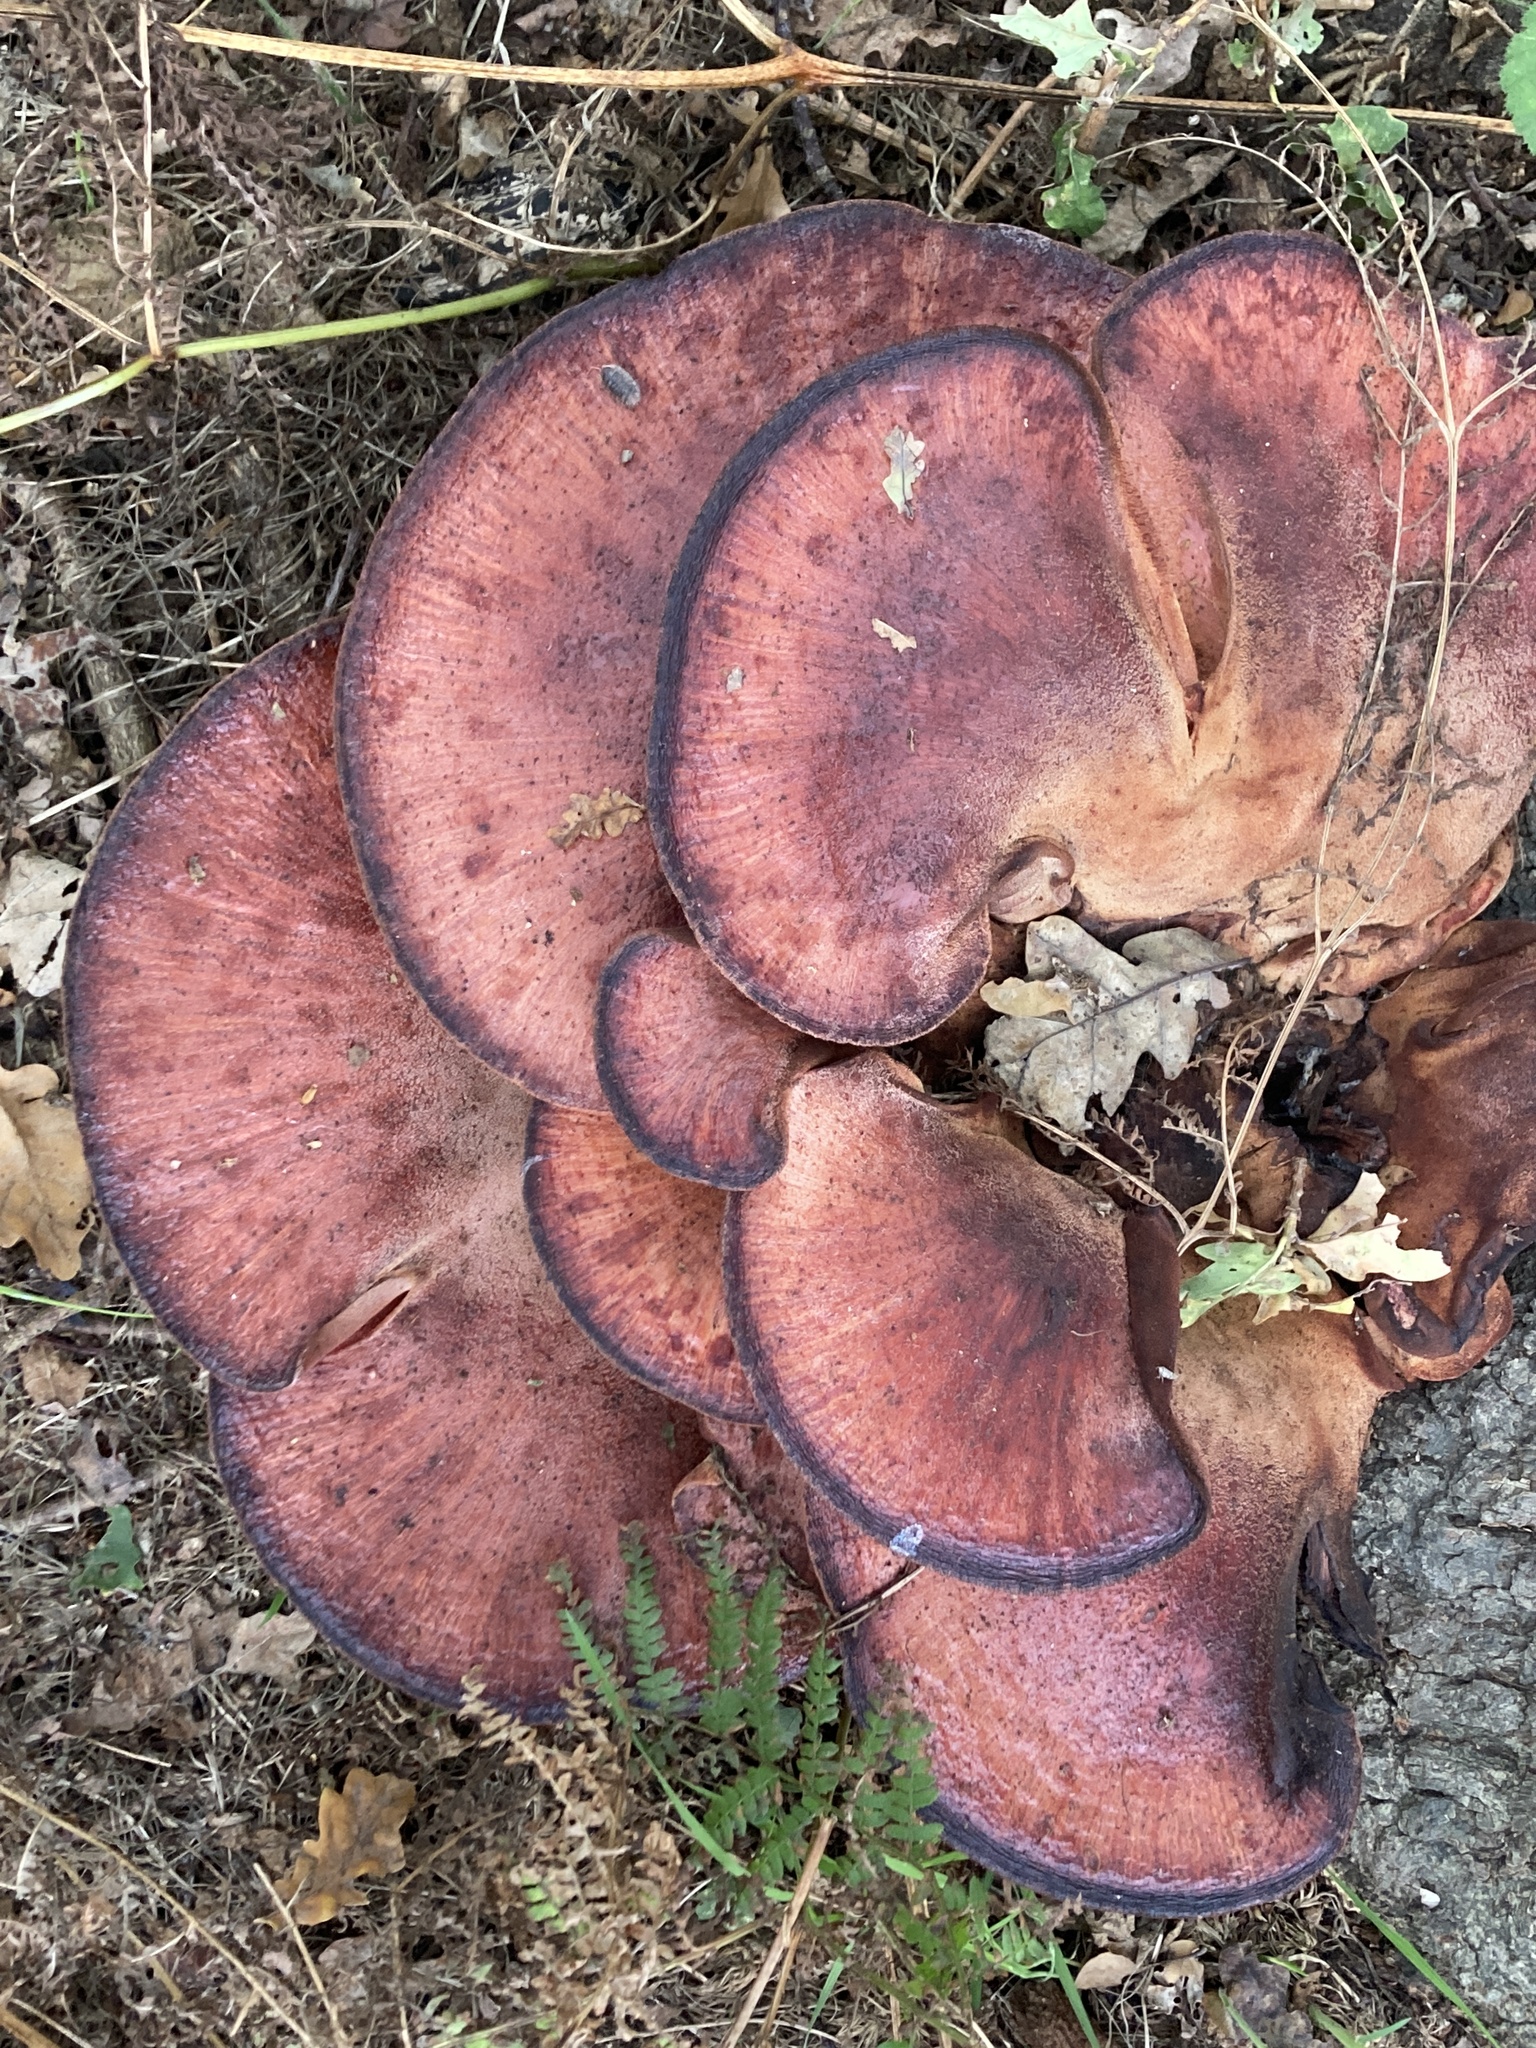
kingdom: Fungi
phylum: Basidiomycota
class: Agaricomycetes
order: Agaricales
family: Fistulinaceae
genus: Fistulina
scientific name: Fistulina hepatica
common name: Beef-steak fungus
